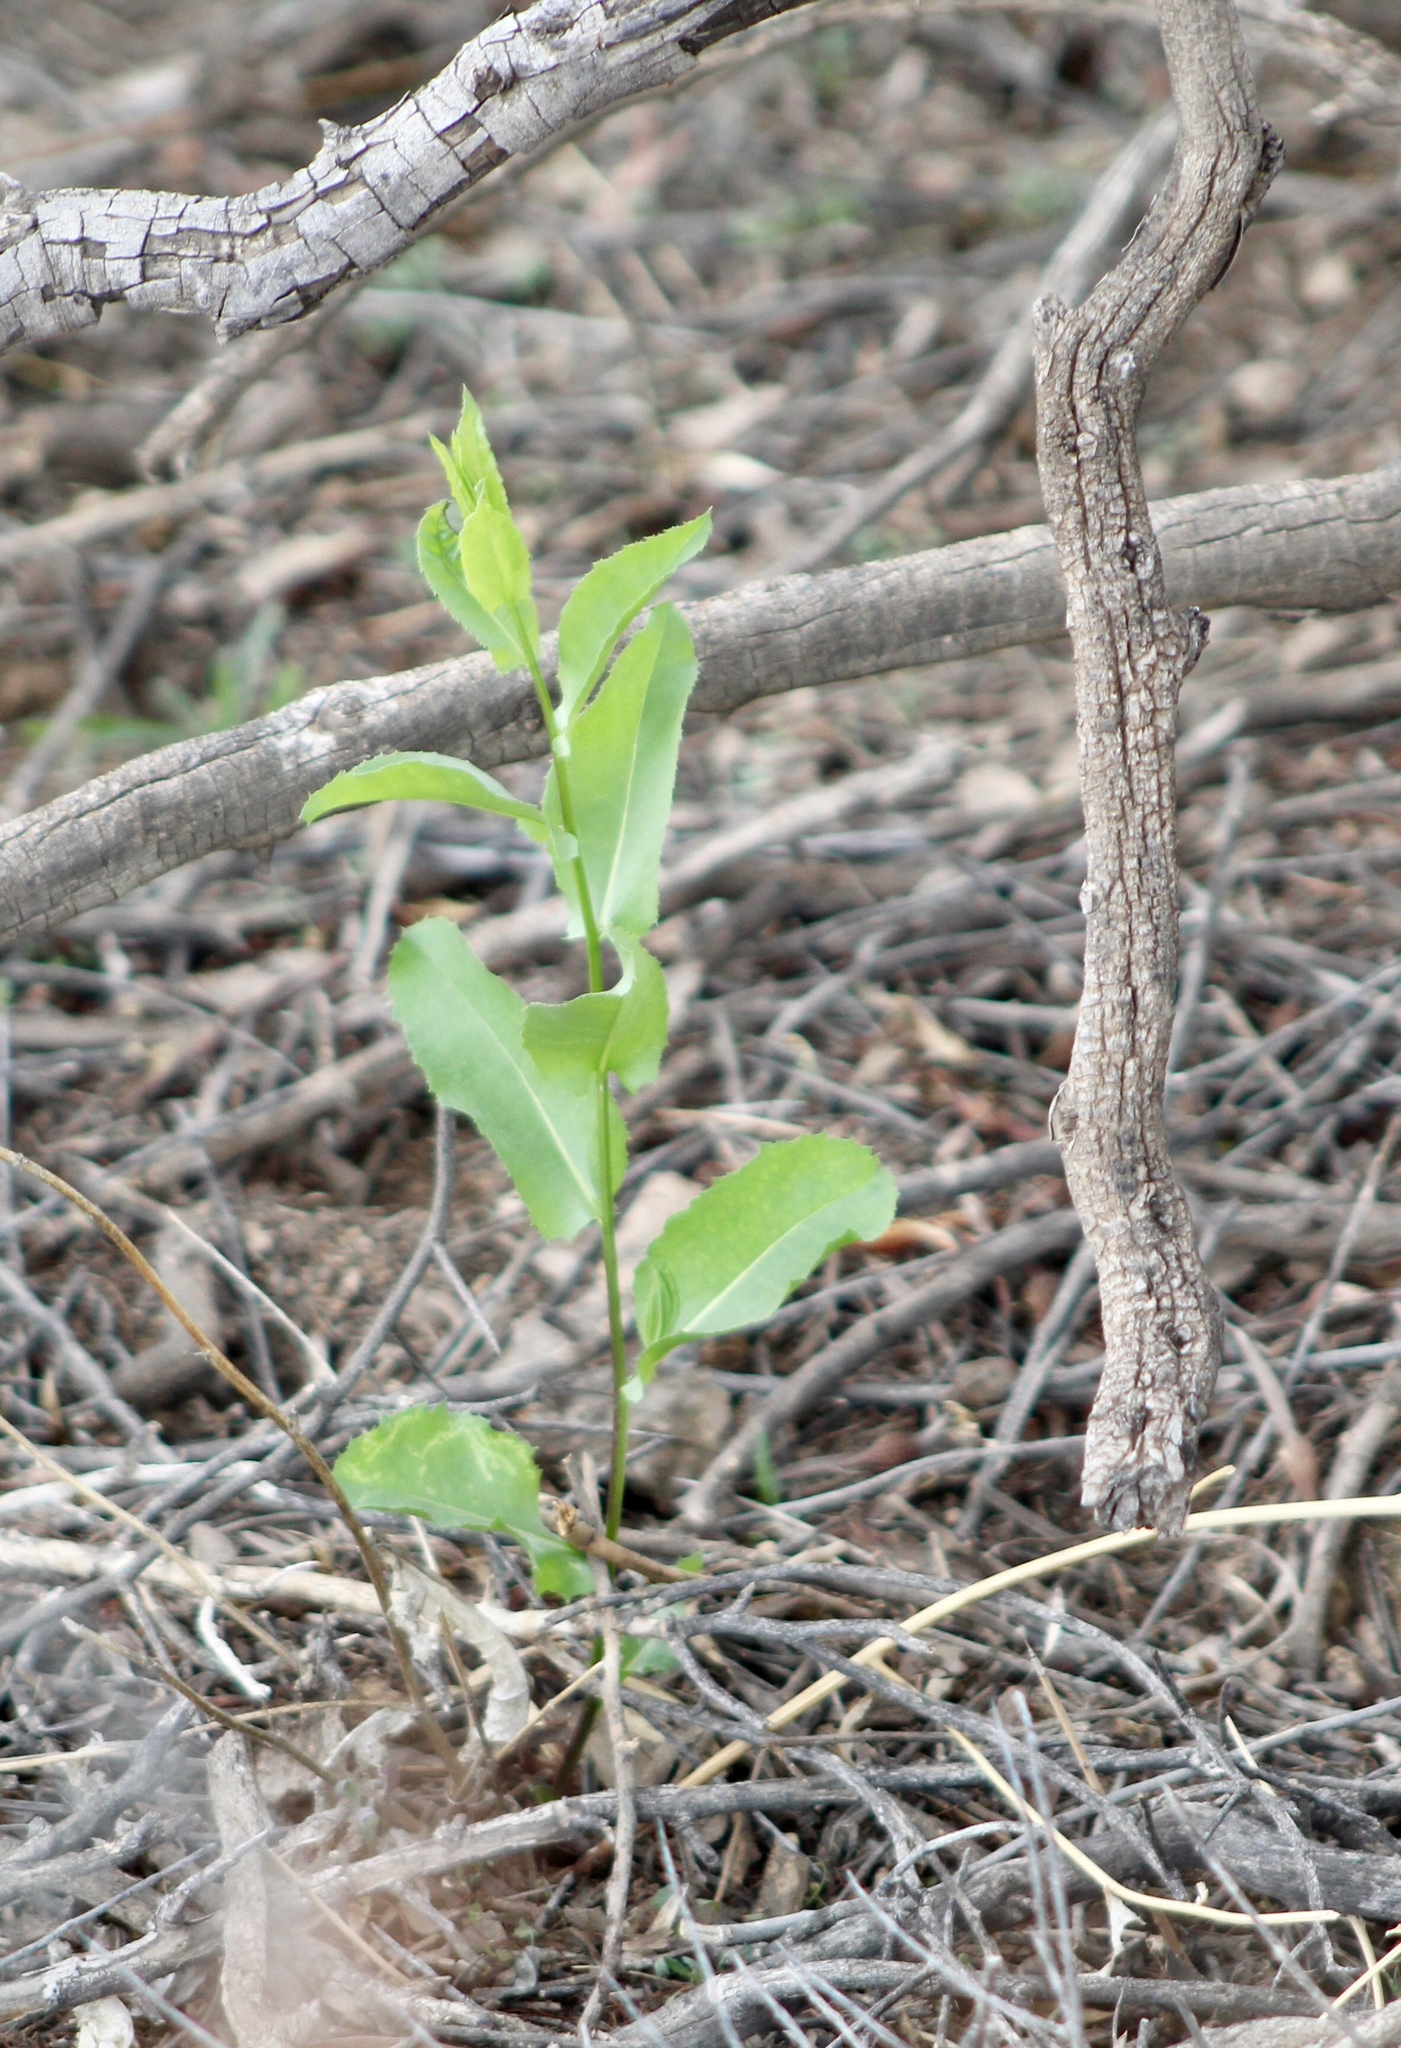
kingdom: Plantae
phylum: Tracheophyta
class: Magnoliopsida
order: Asterales
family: Asteraceae
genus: Acourtia
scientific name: Acourtia wrightii
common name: Brownfoot
